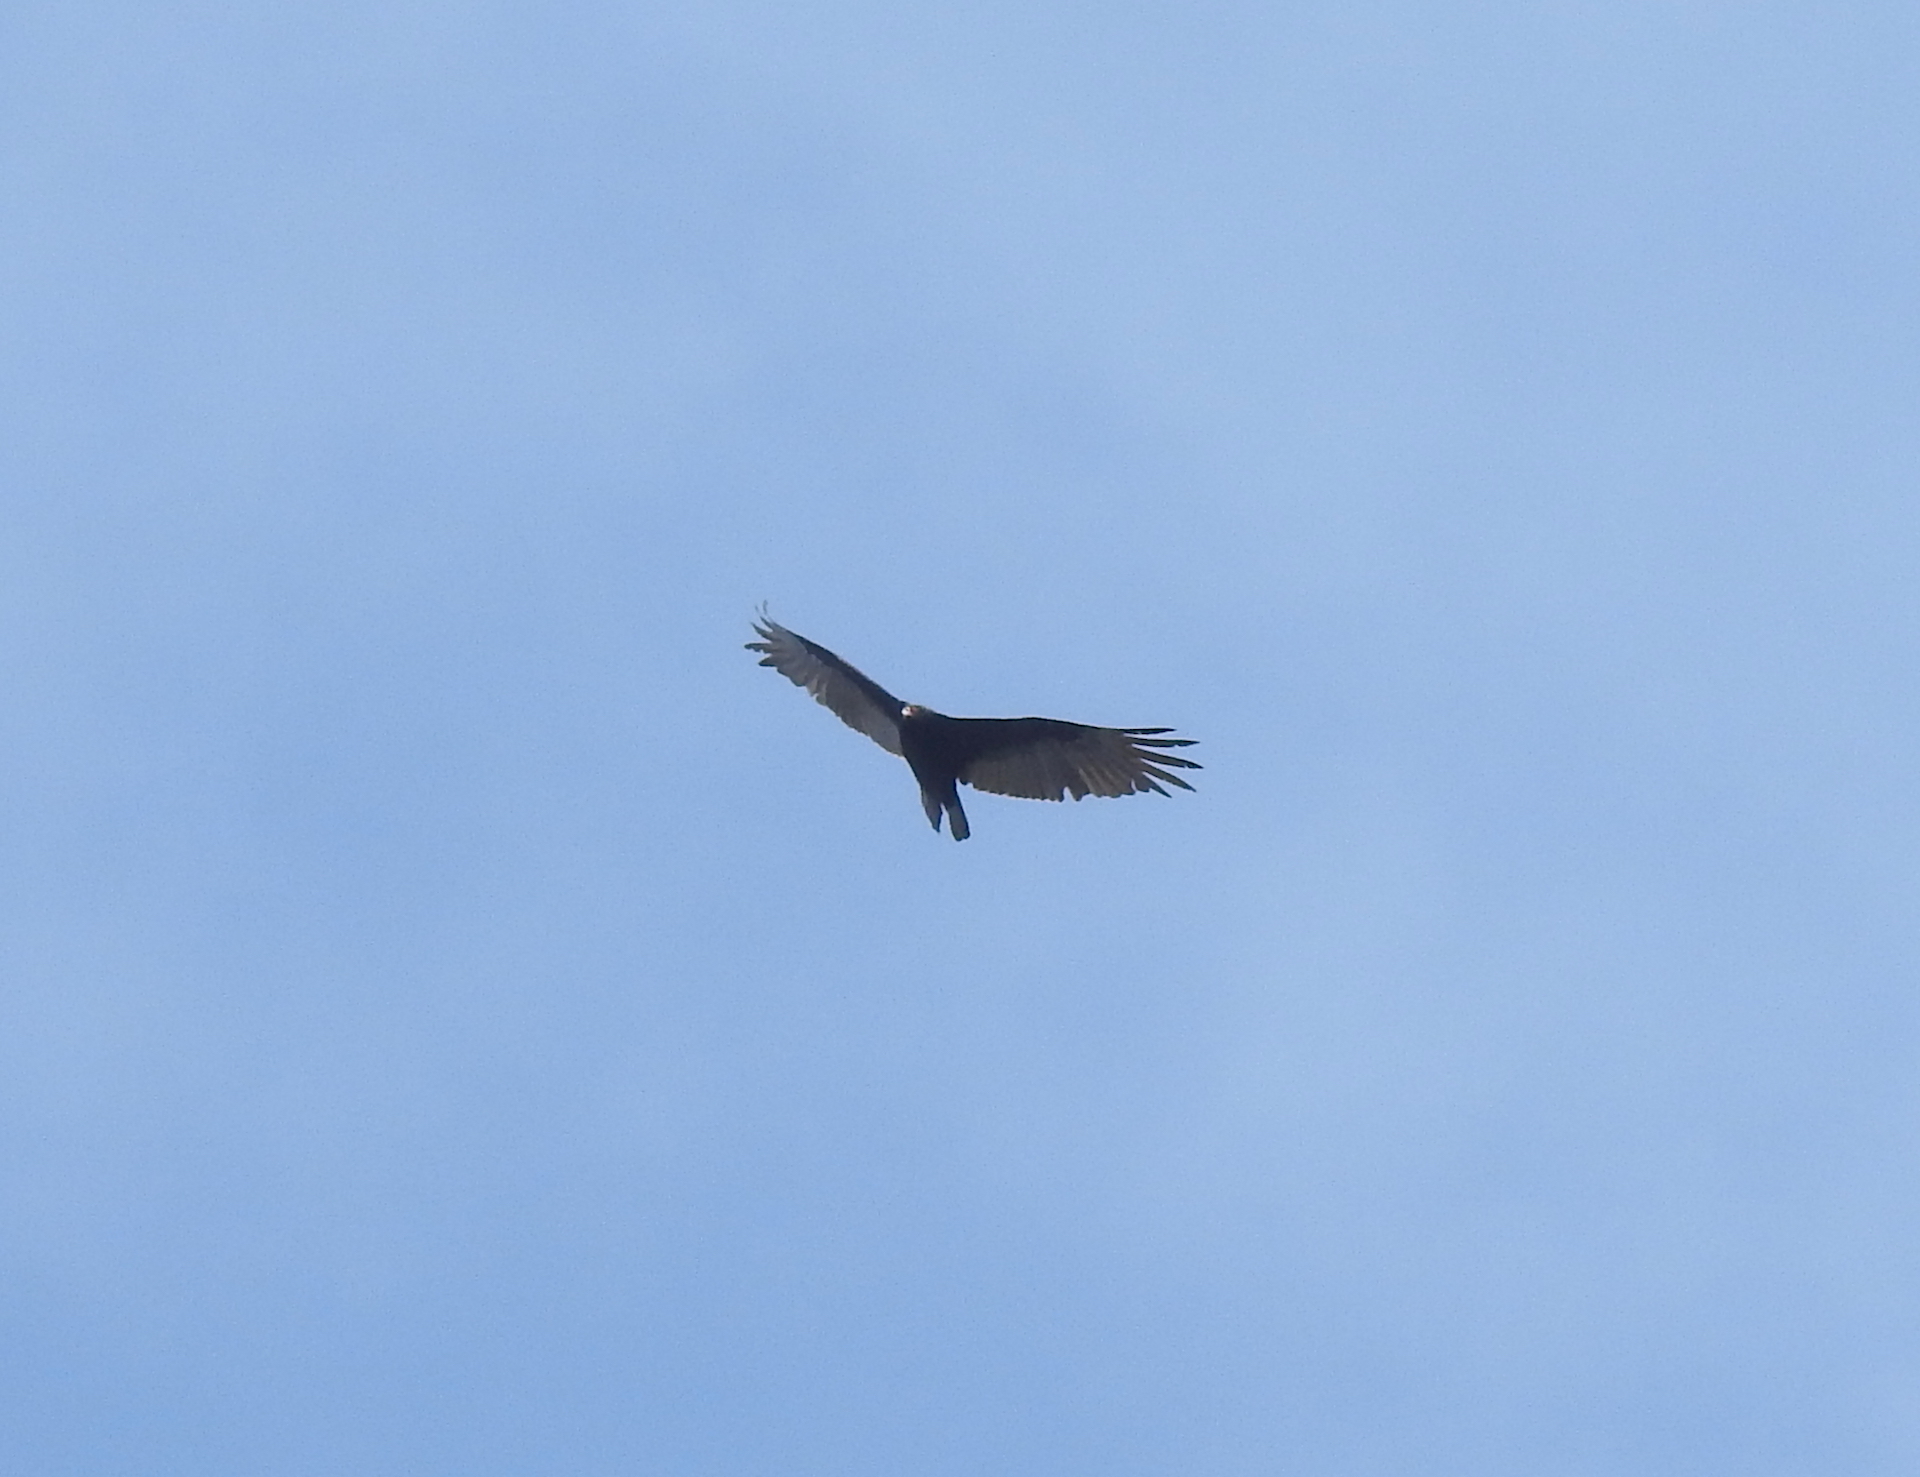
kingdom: Animalia
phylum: Chordata
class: Aves
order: Accipitriformes
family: Cathartidae
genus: Cathartes
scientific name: Cathartes aura
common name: Turkey vulture
